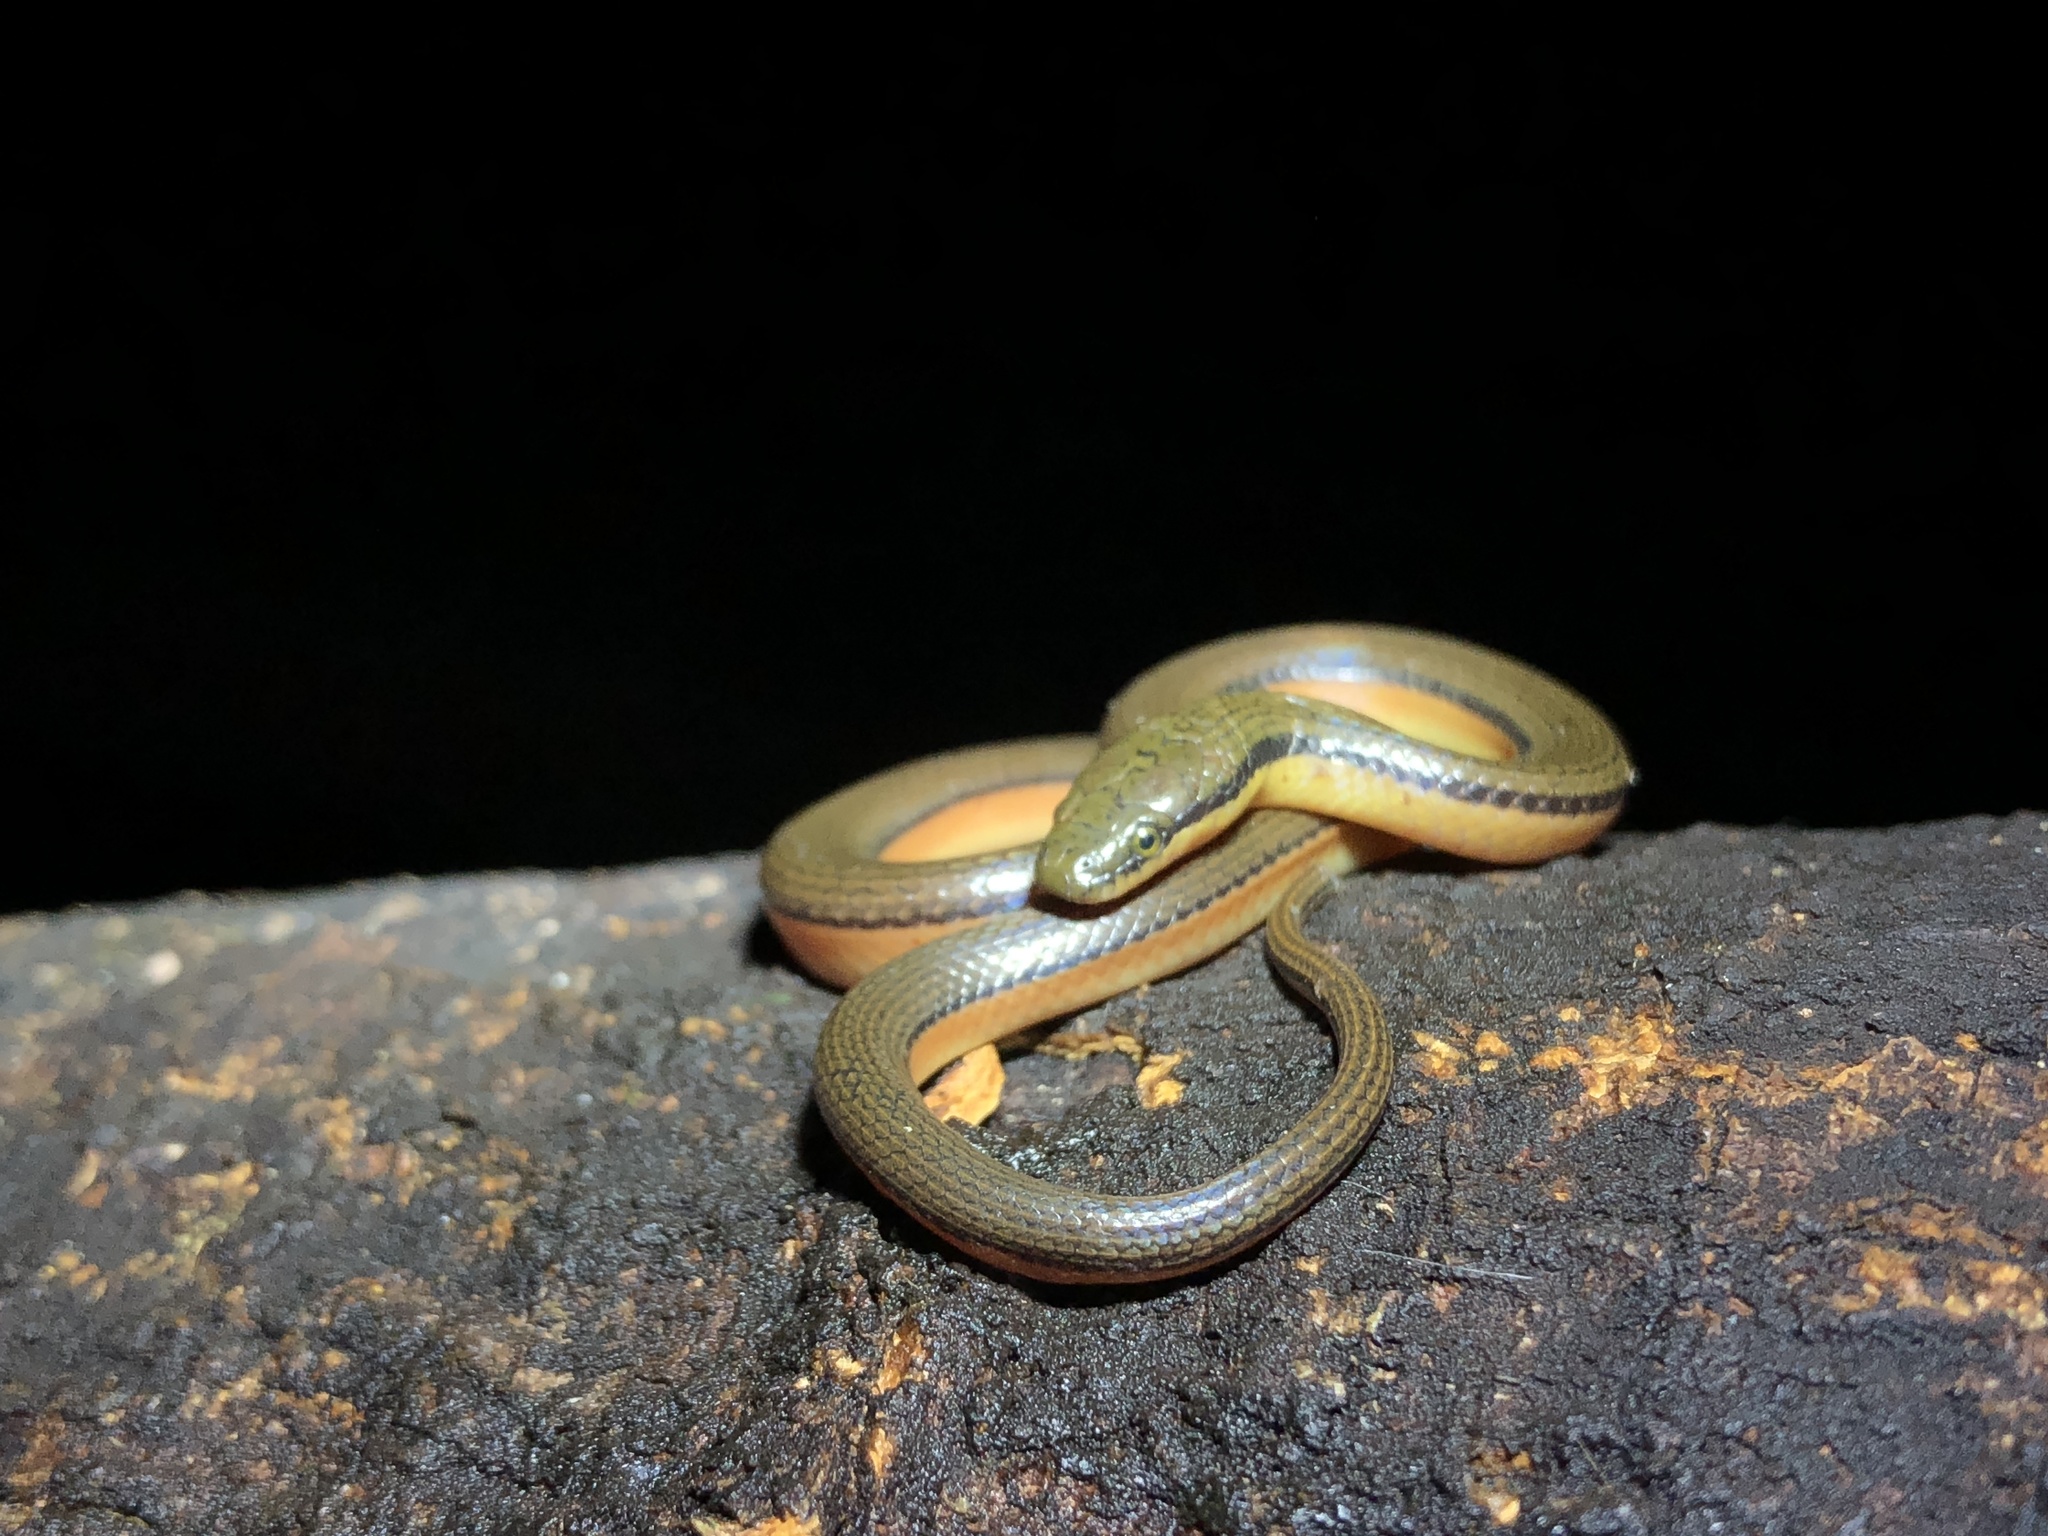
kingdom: Animalia
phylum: Chordata
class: Squamata
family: Colubridae
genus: Opisthotropis
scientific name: Opisthotropis lateralis
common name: Tonkin mountain keelback
